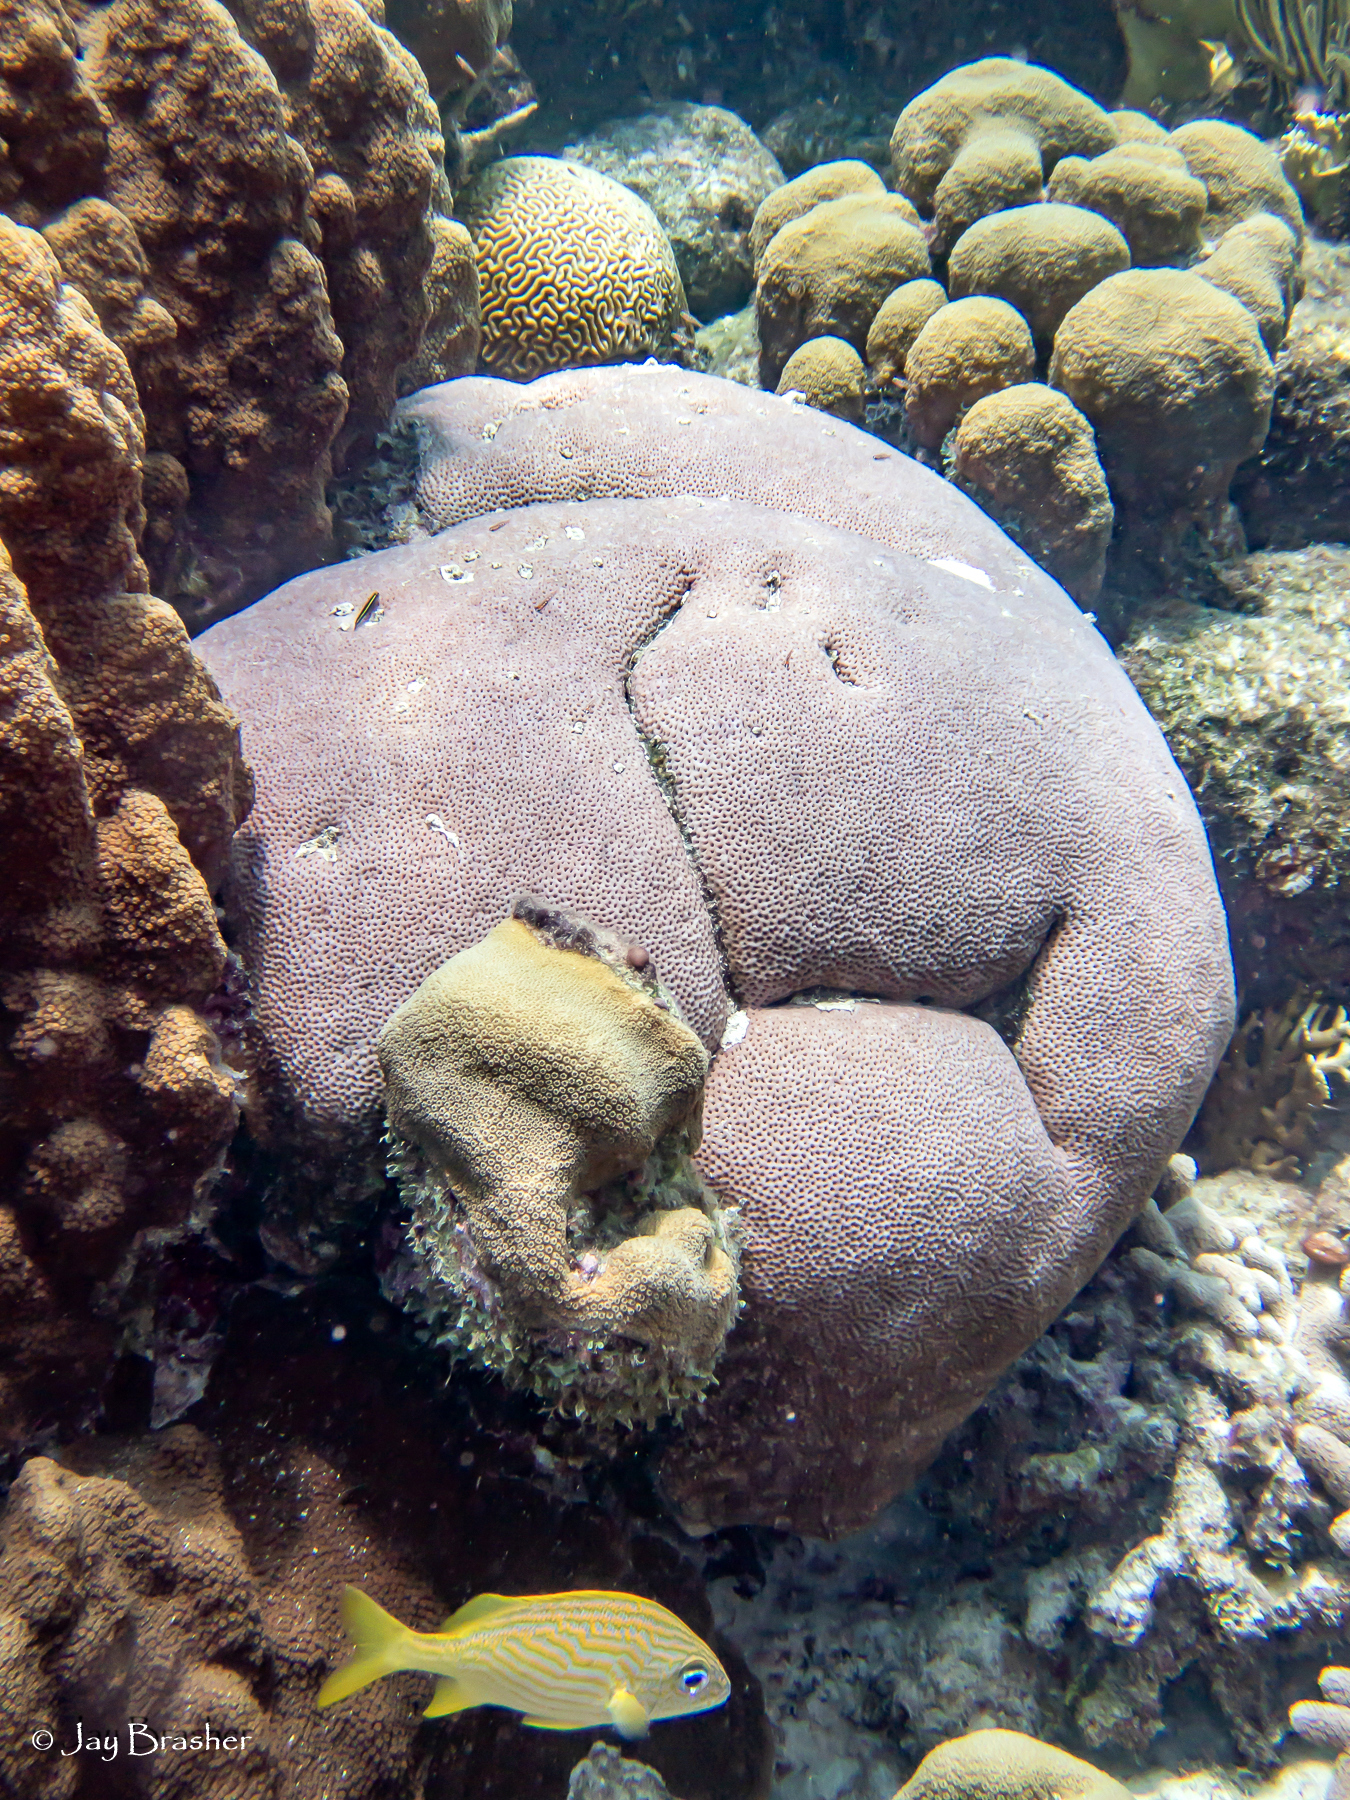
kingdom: Animalia
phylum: Cnidaria
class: Anthozoa
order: Scleractinia
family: Rhizangiidae
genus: Siderastrea
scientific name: Siderastrea siderea
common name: Massive starlet coral
